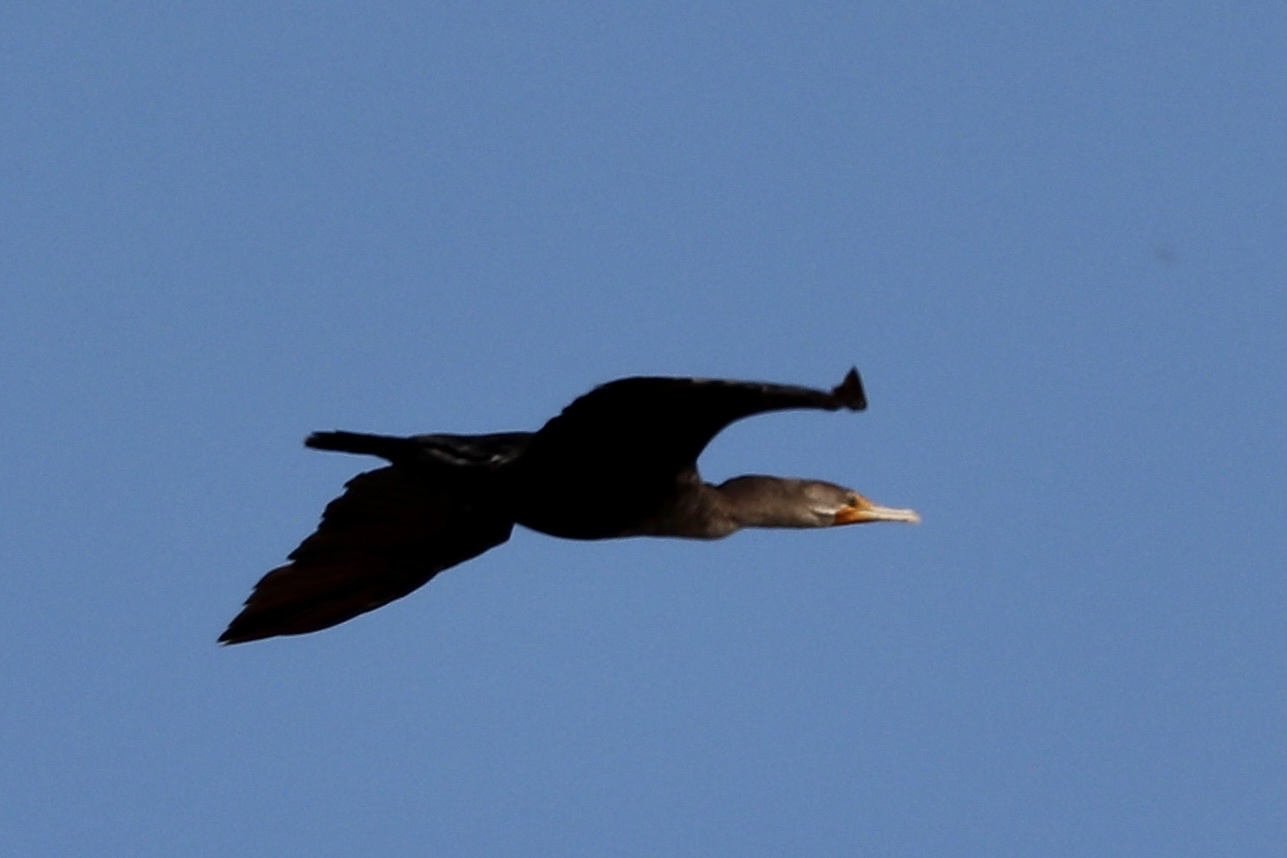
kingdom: Animalia
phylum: Chordata
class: Aves
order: Suliformes
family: Phalacrocoracidae
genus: Phalacrocorax
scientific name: Phalacrocorax auritus
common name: Double-crested cormorant
